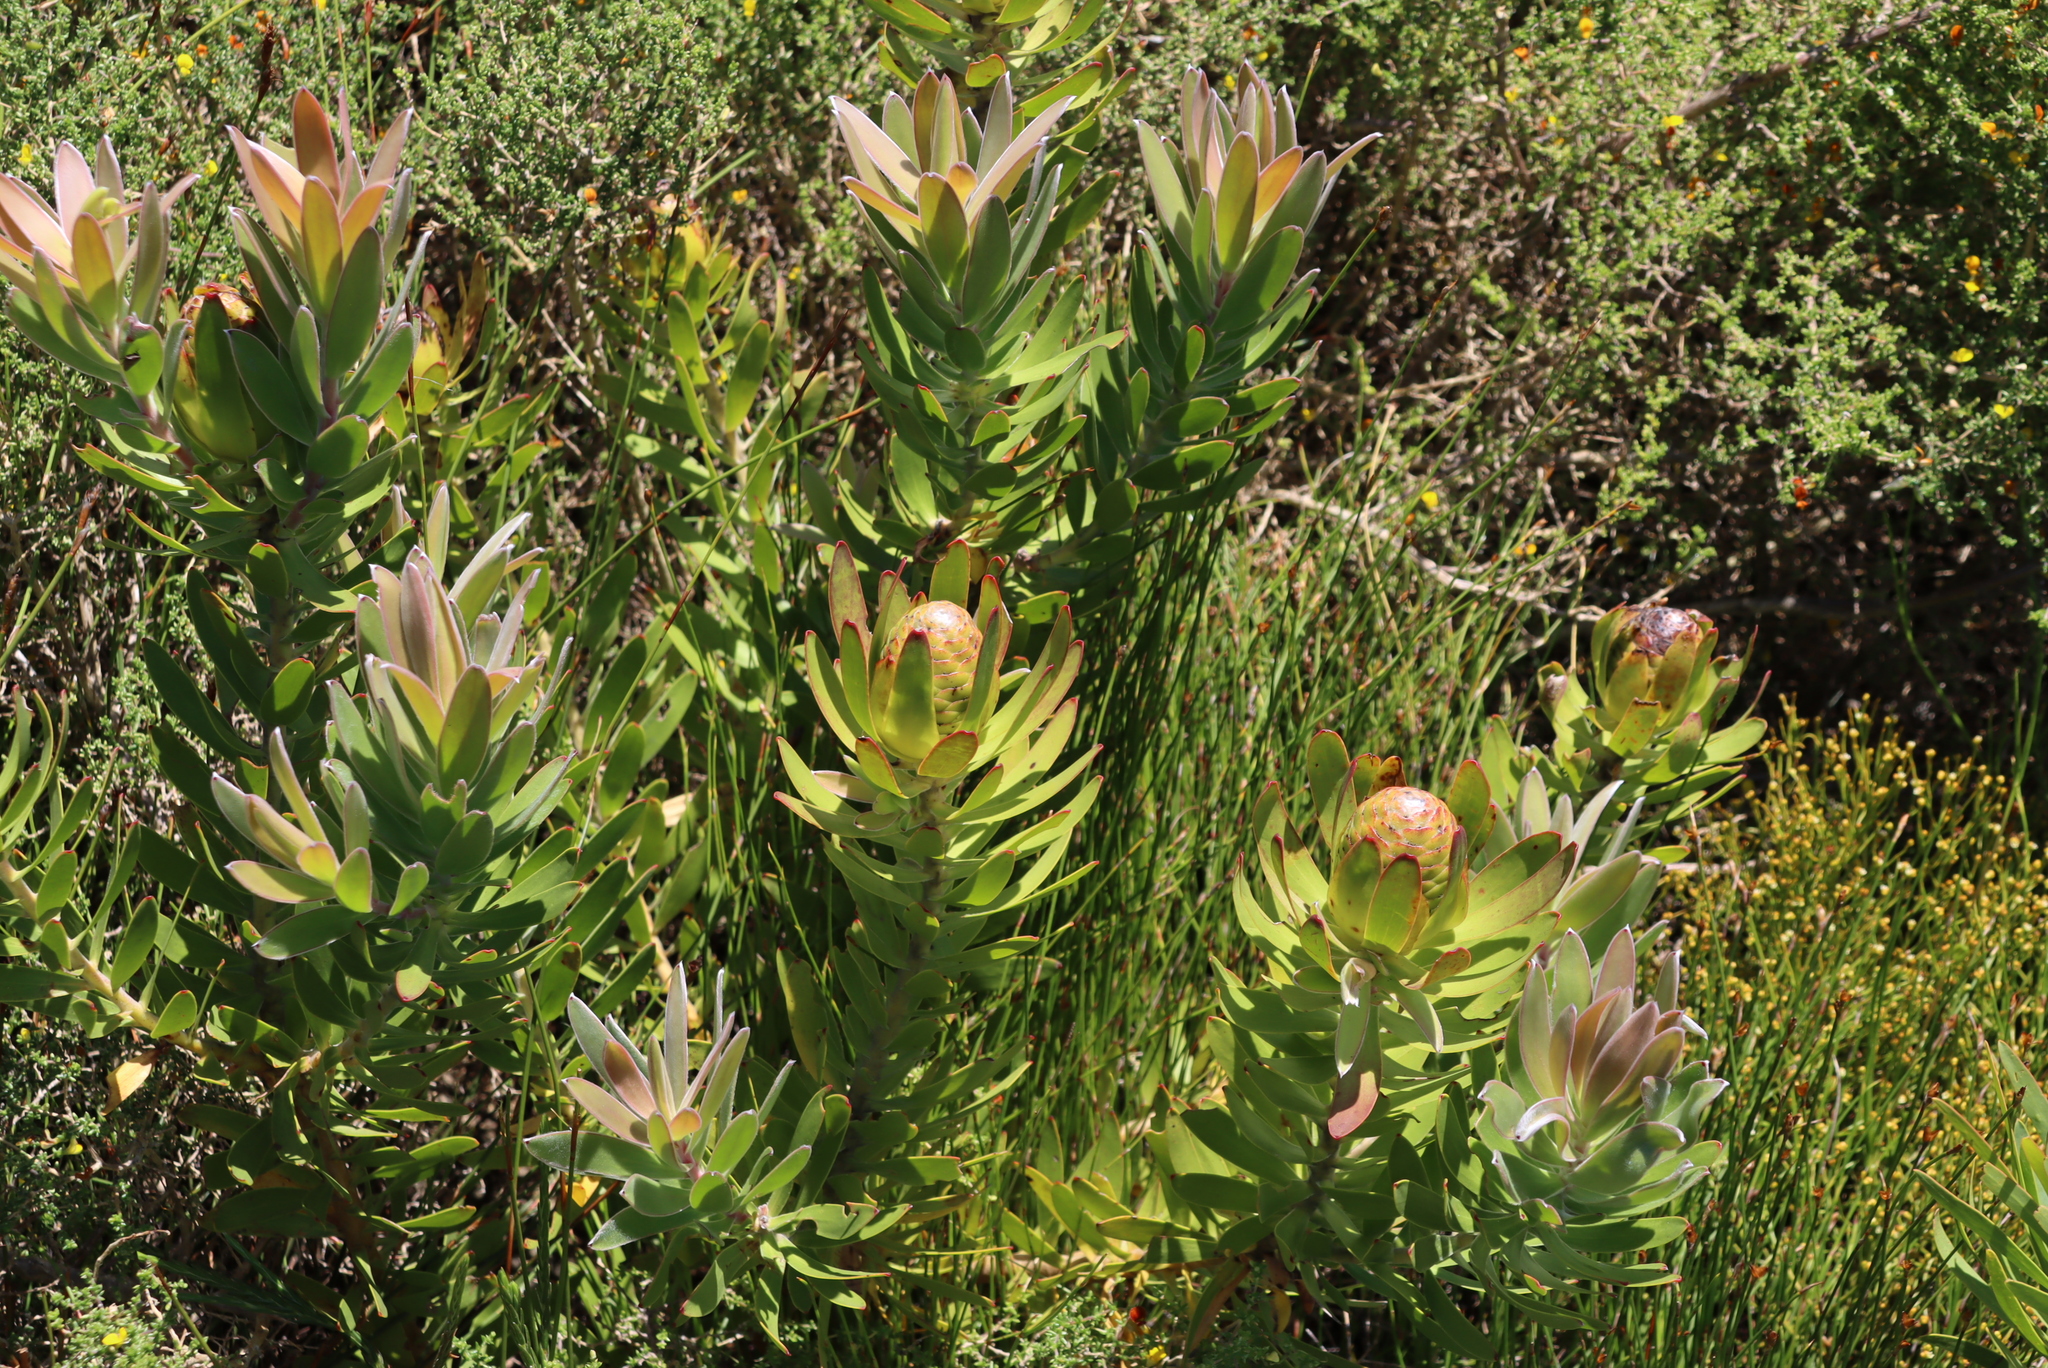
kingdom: Plantae
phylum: Tracheophyta
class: Magnoliopsida
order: Proteales
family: Proteaceae
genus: Leucadendron
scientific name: Leucadendron laureolum
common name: Golden sunshinebush
